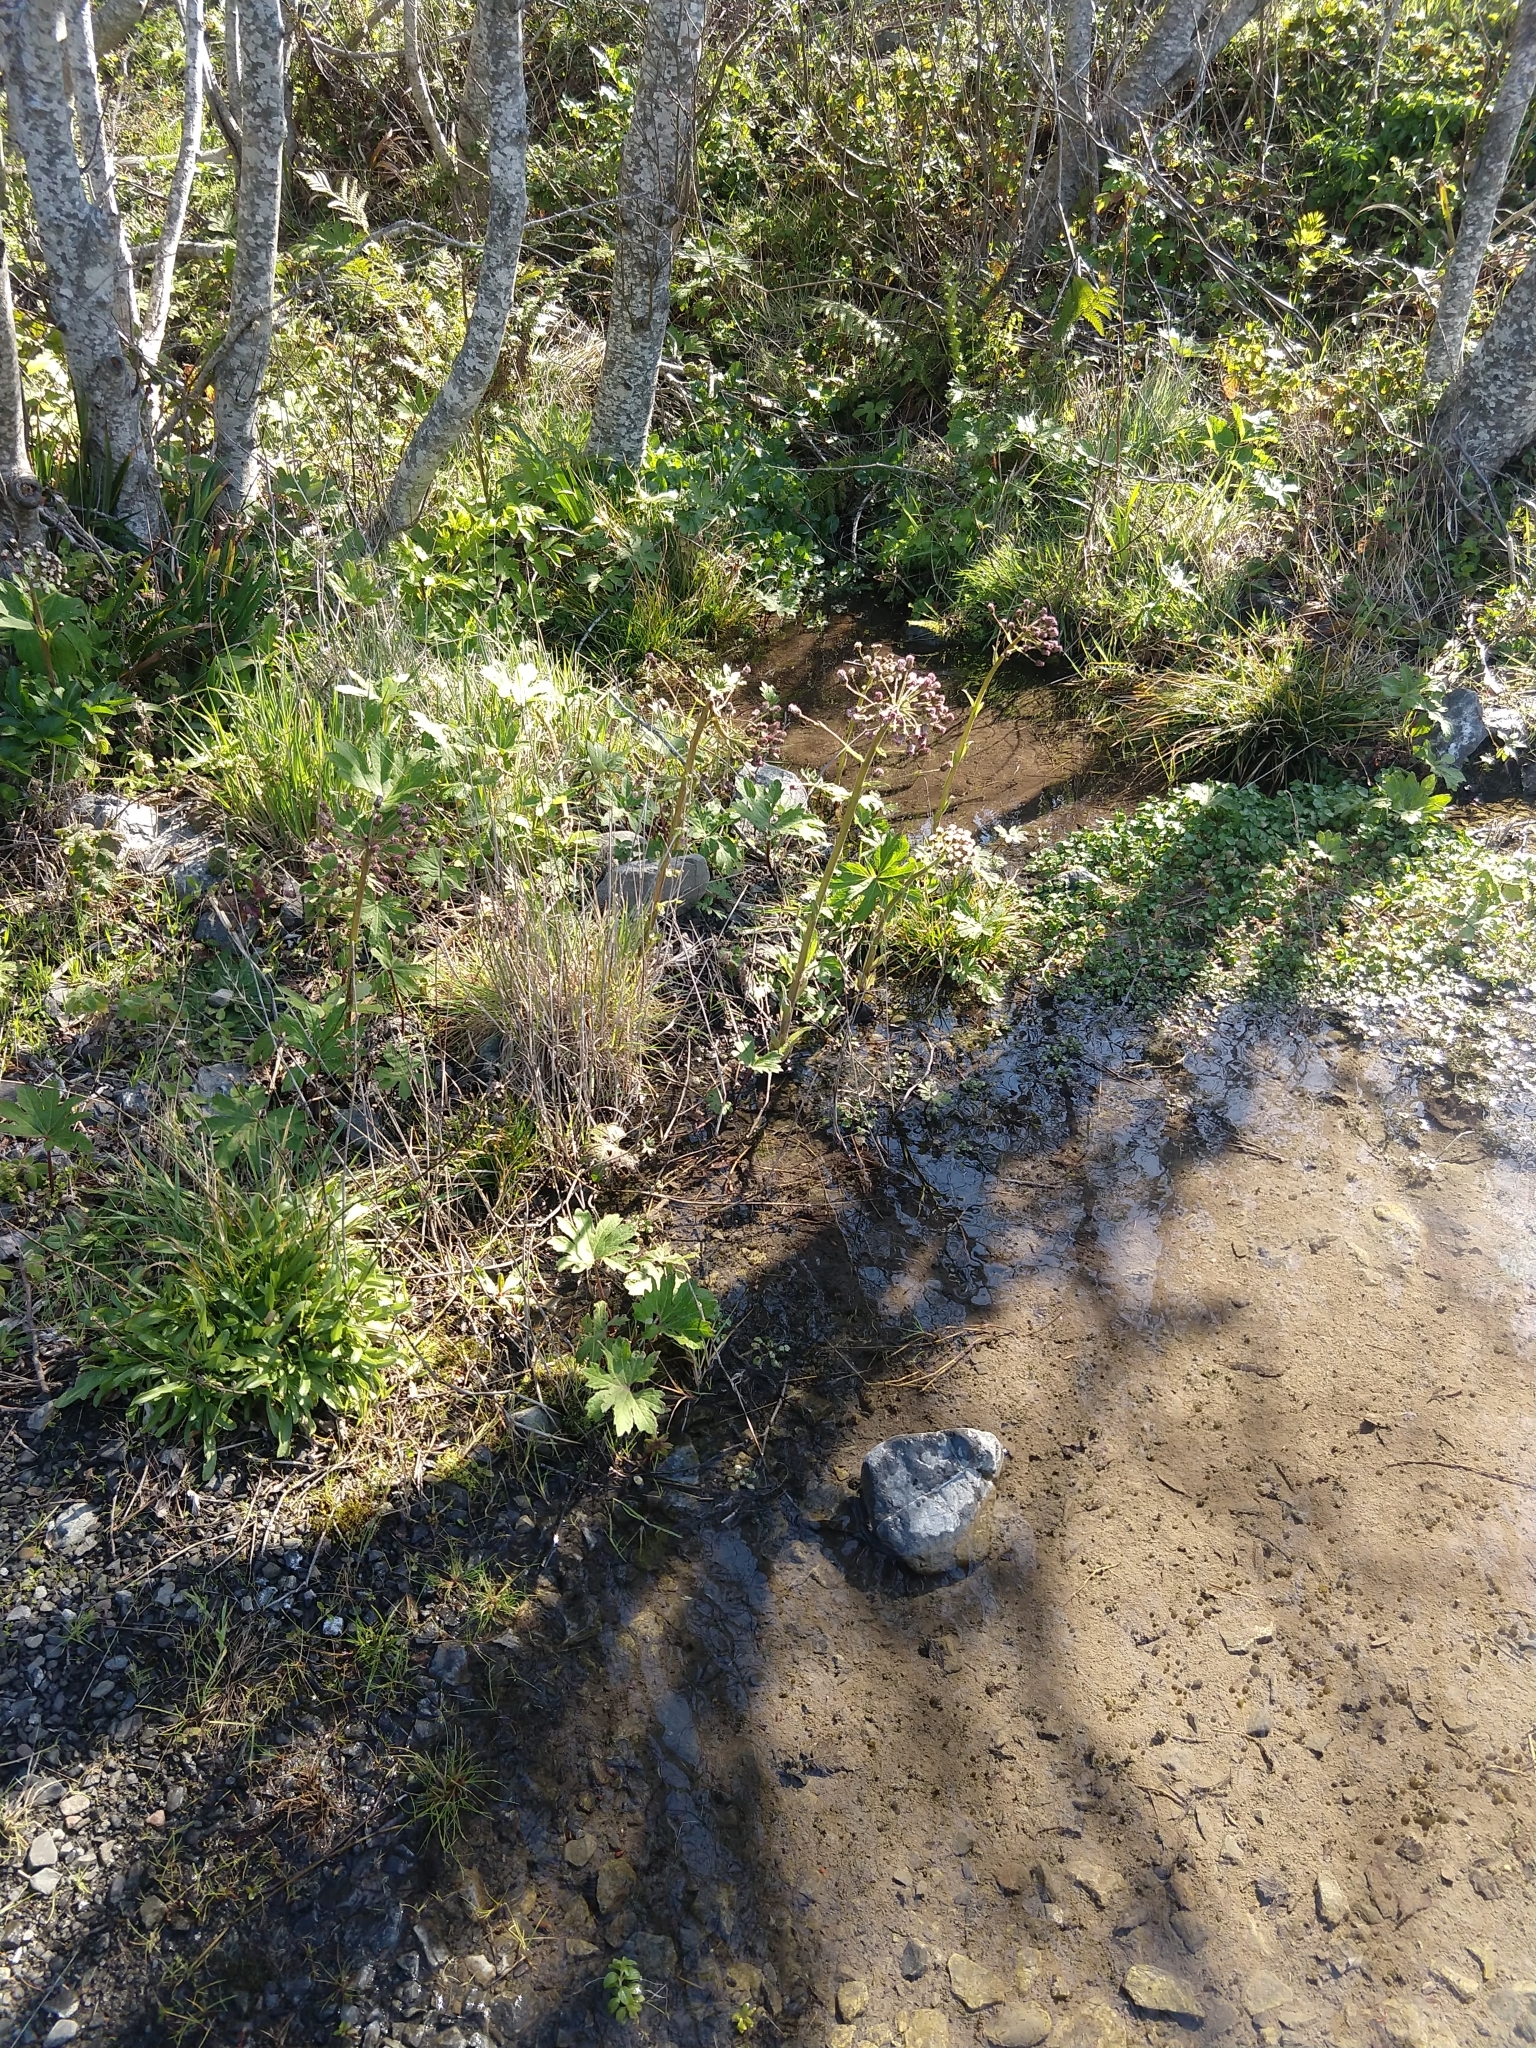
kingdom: Plantae
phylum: Tracheophyta
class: Magnoliopsida
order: Asterales
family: Asteraceae
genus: Petasites
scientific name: Petasites frigidus
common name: Arctic butterbur
